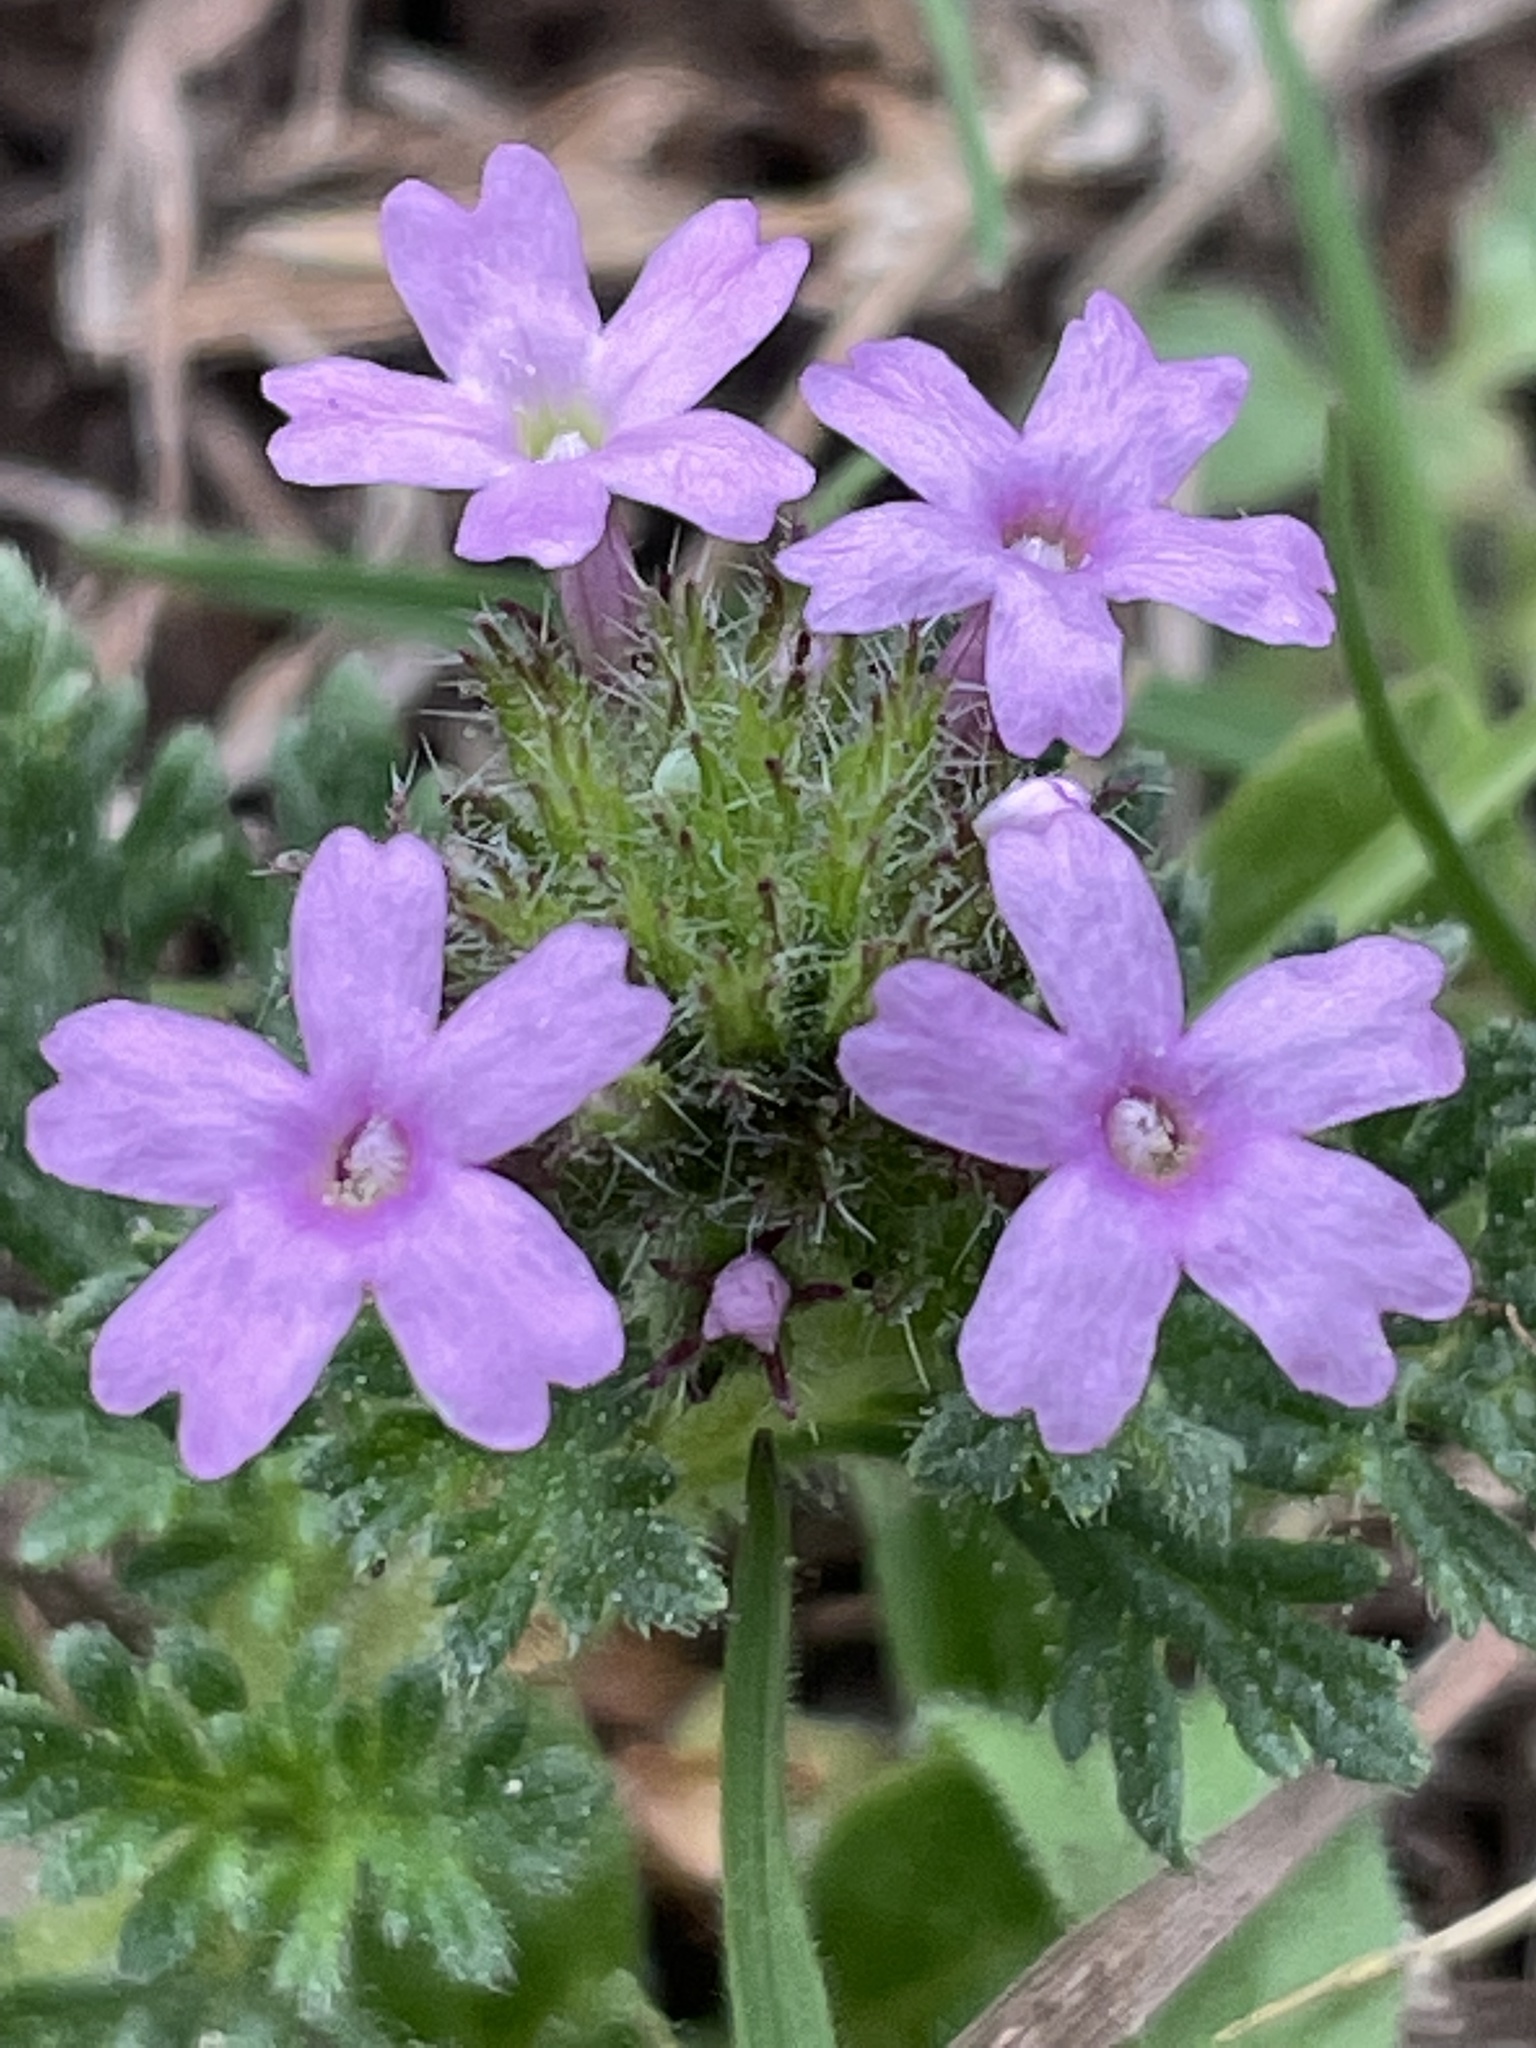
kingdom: Plantae
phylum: Tracheophyta
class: Magnoliopsida
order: Lamiales
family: Verbenaceae
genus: Verbena
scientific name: Verbena pumila
